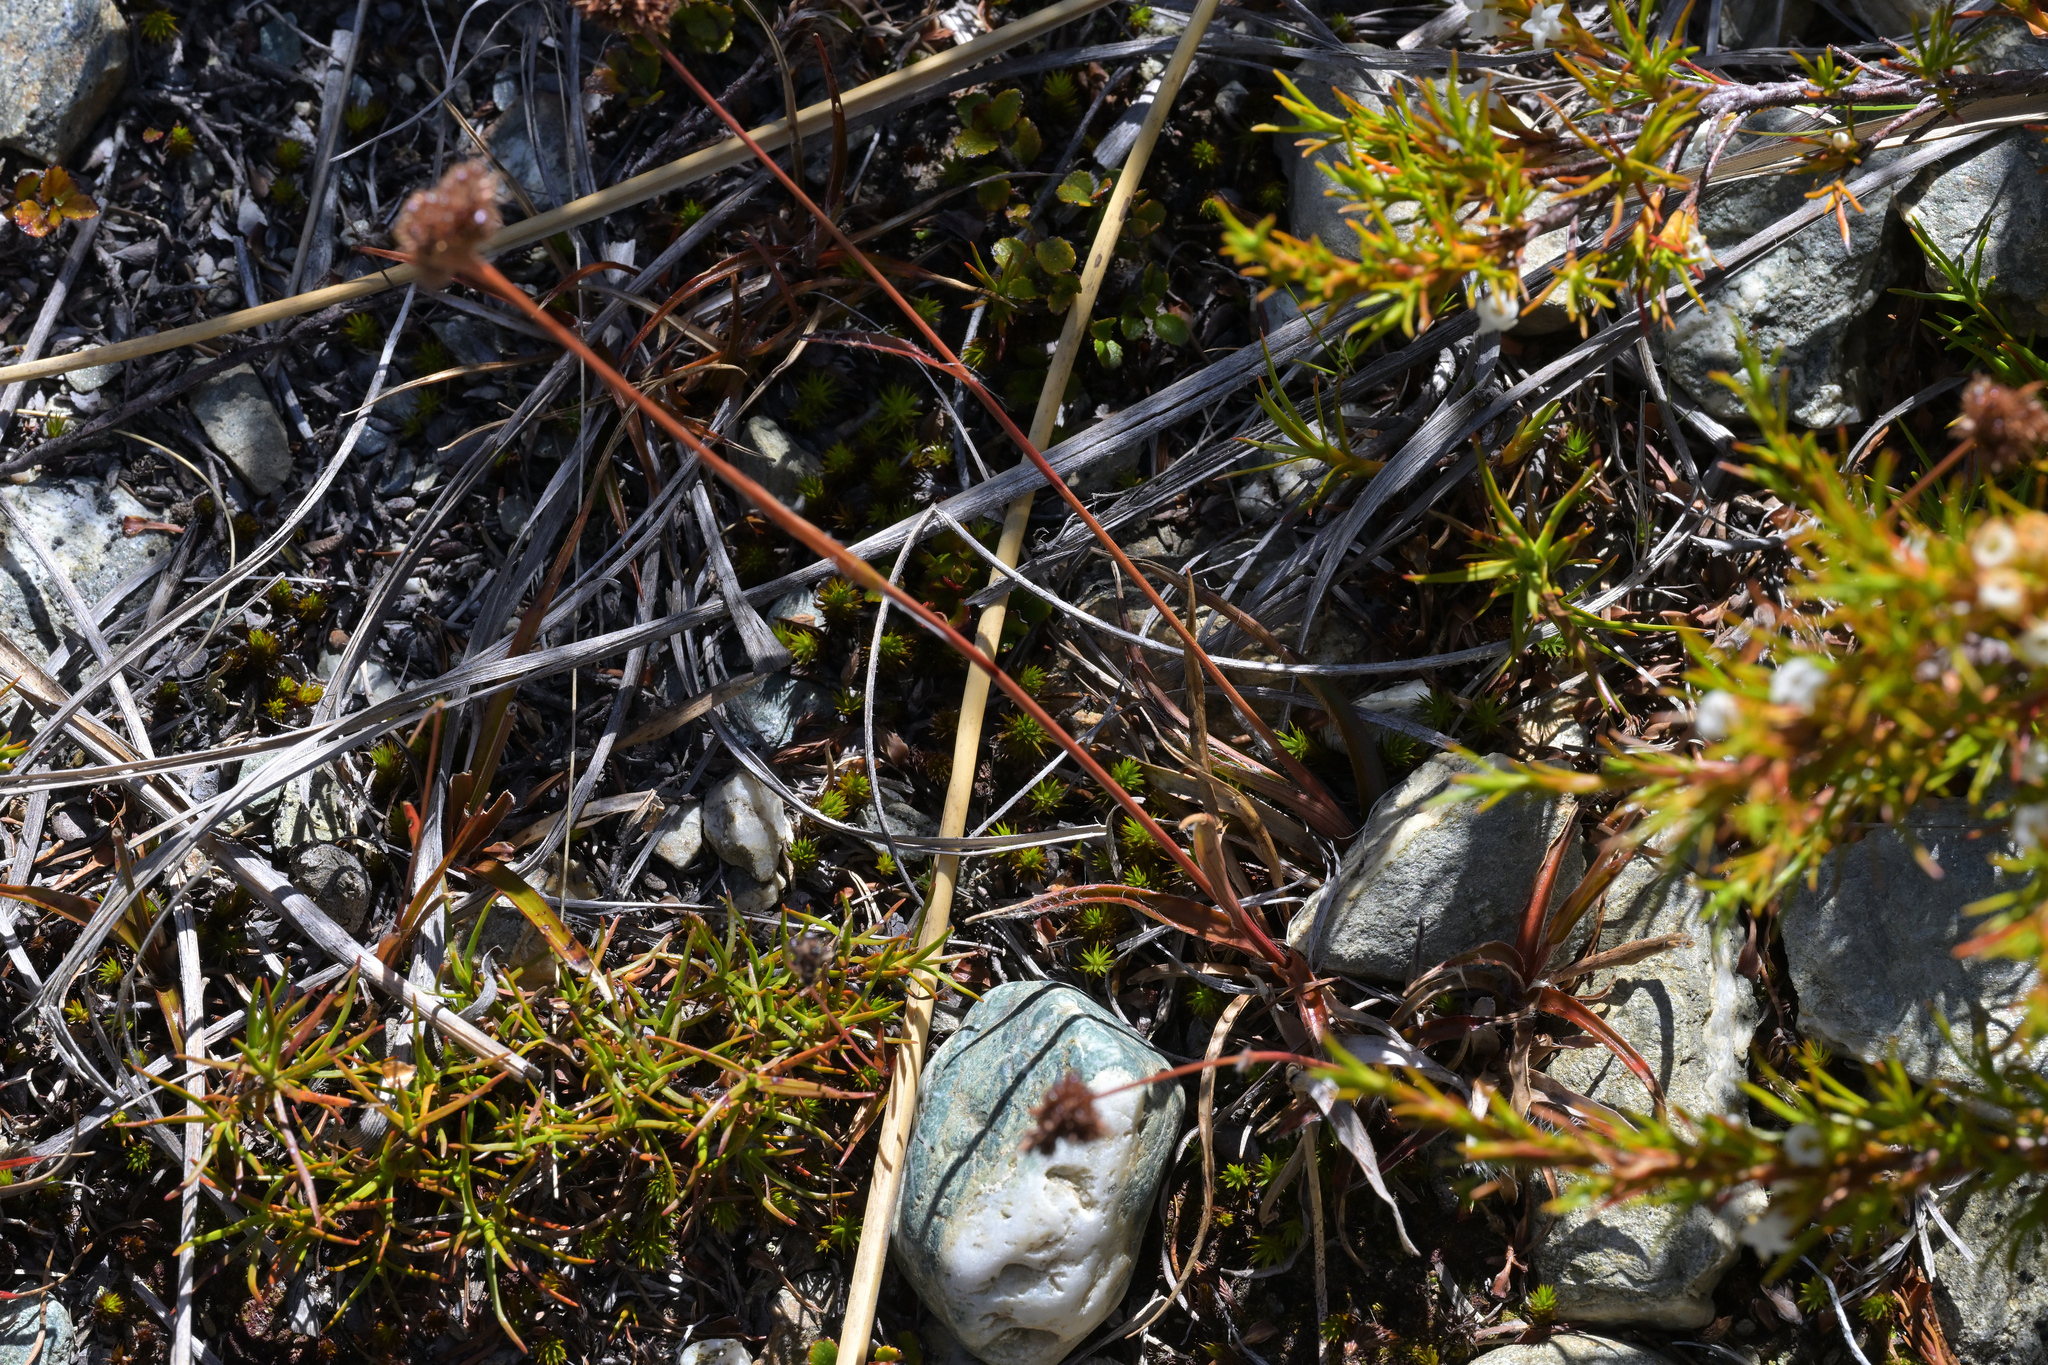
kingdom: Plantae
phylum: Tracheophyta
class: Liliopsida
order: Poales
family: Juncaceae
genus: Luzula
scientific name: Luzula rufa
